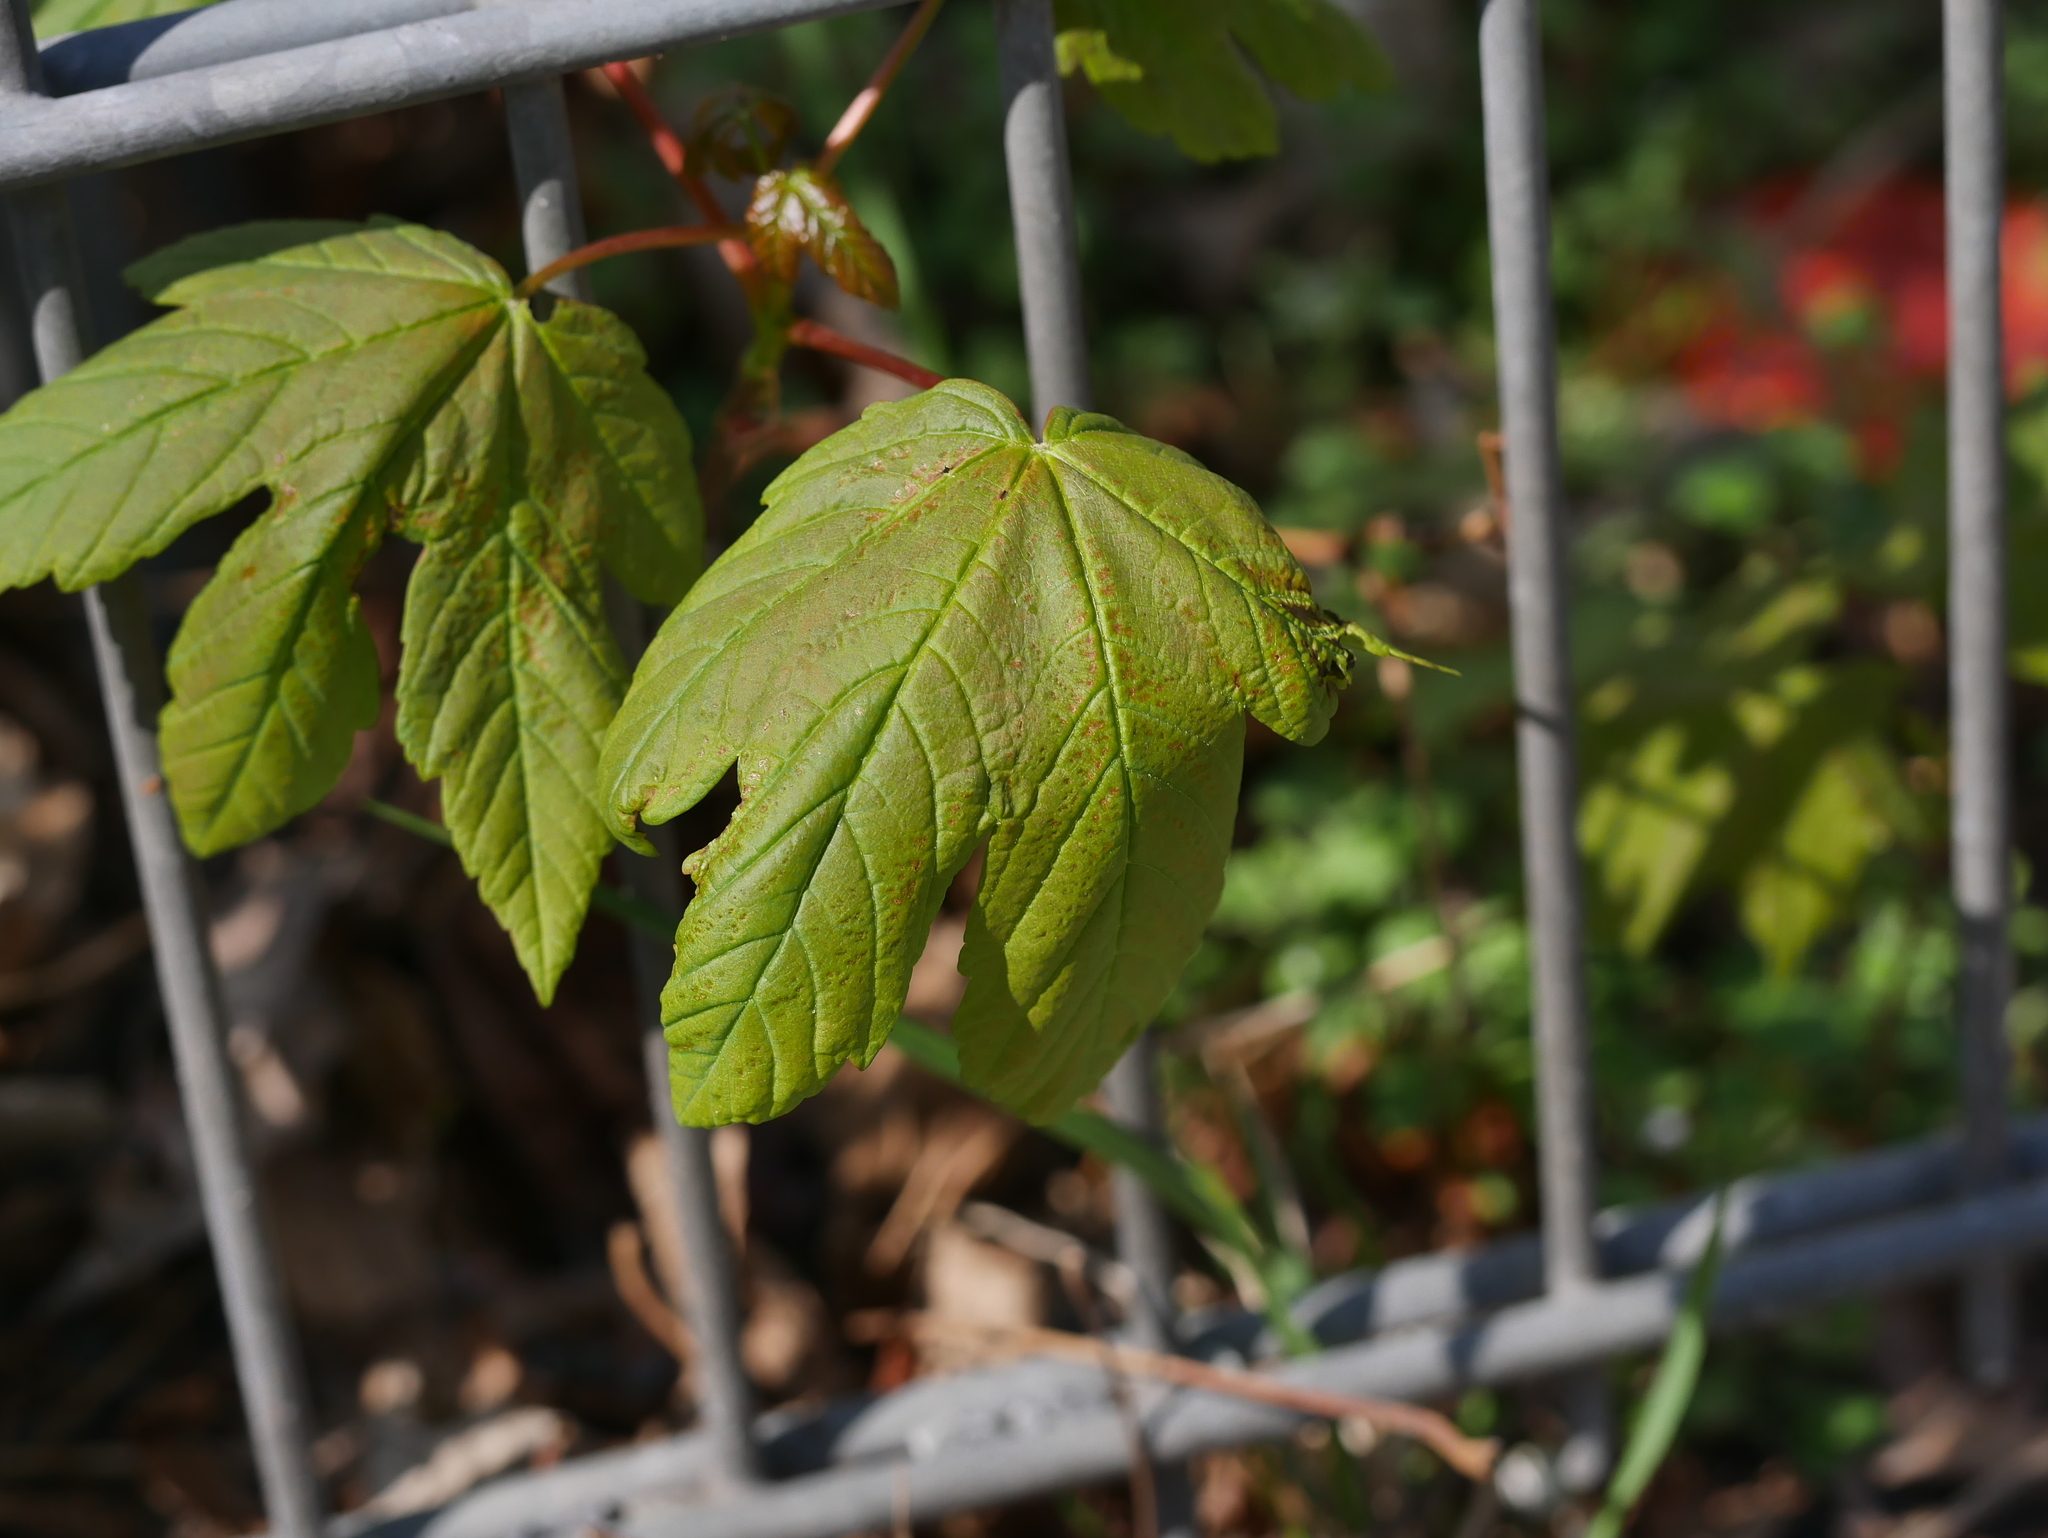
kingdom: Plantae
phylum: Tracheophyta
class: Magnoliopsida
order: Sapindales
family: Sapindaceae
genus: Acer
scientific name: Acer pseudoplatanus
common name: Sycamore
